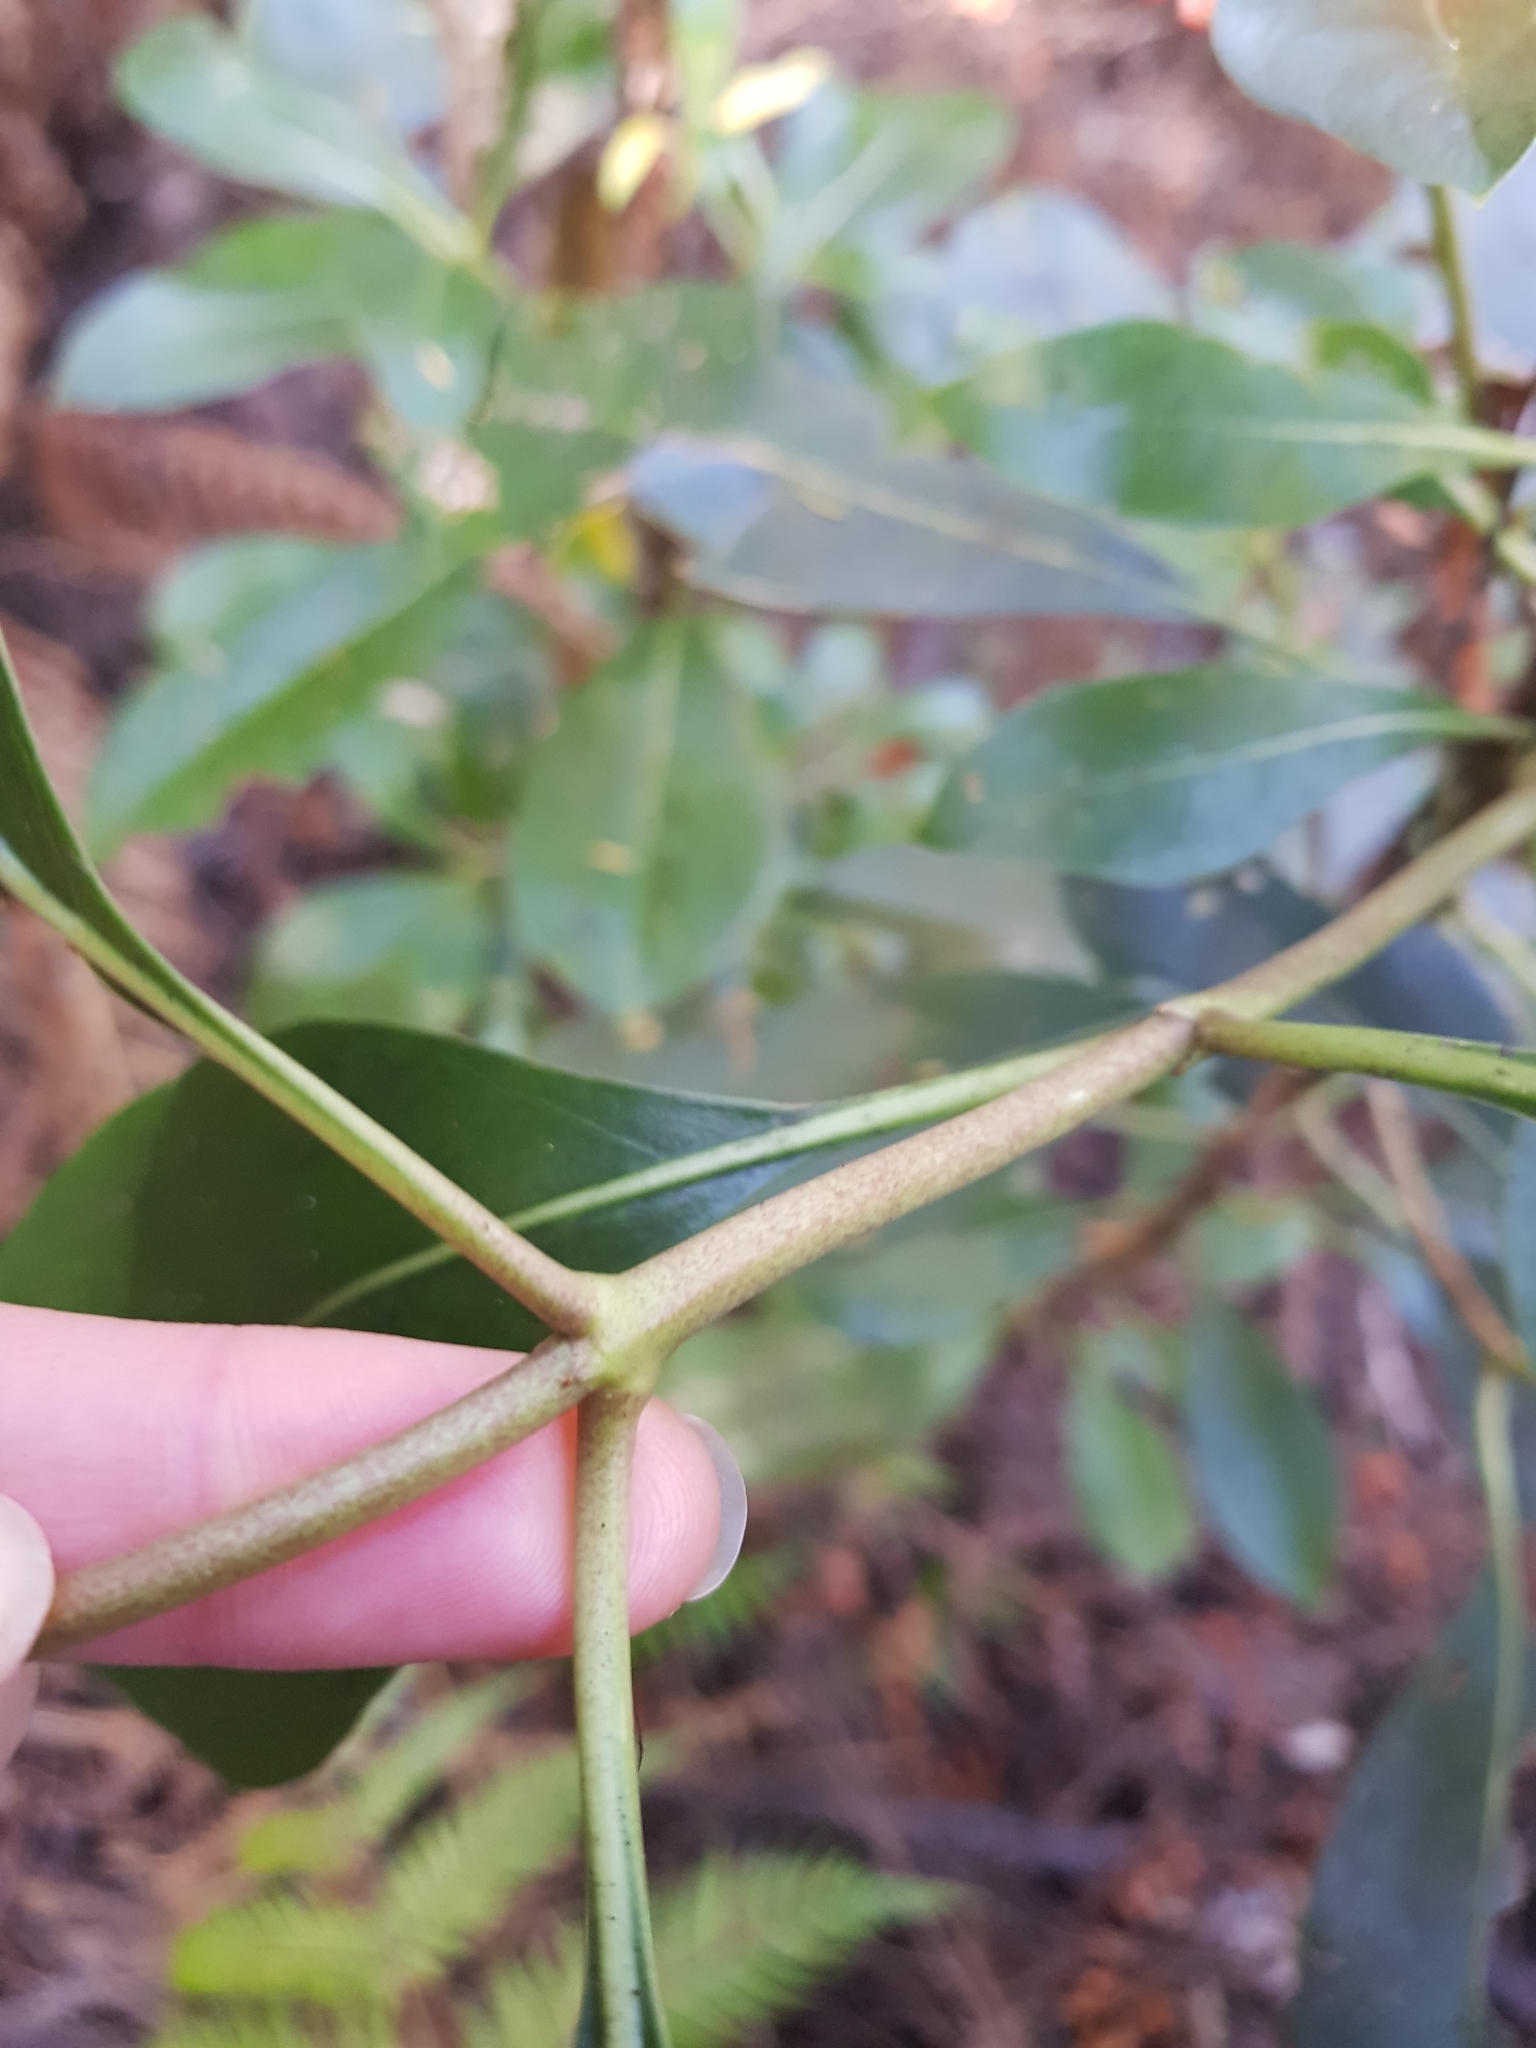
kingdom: Plantae
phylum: Tracheophyta
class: Magnoliopsida
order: Gentianales
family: Rubiaceae
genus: Coprosma
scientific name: Coprosma lucida
